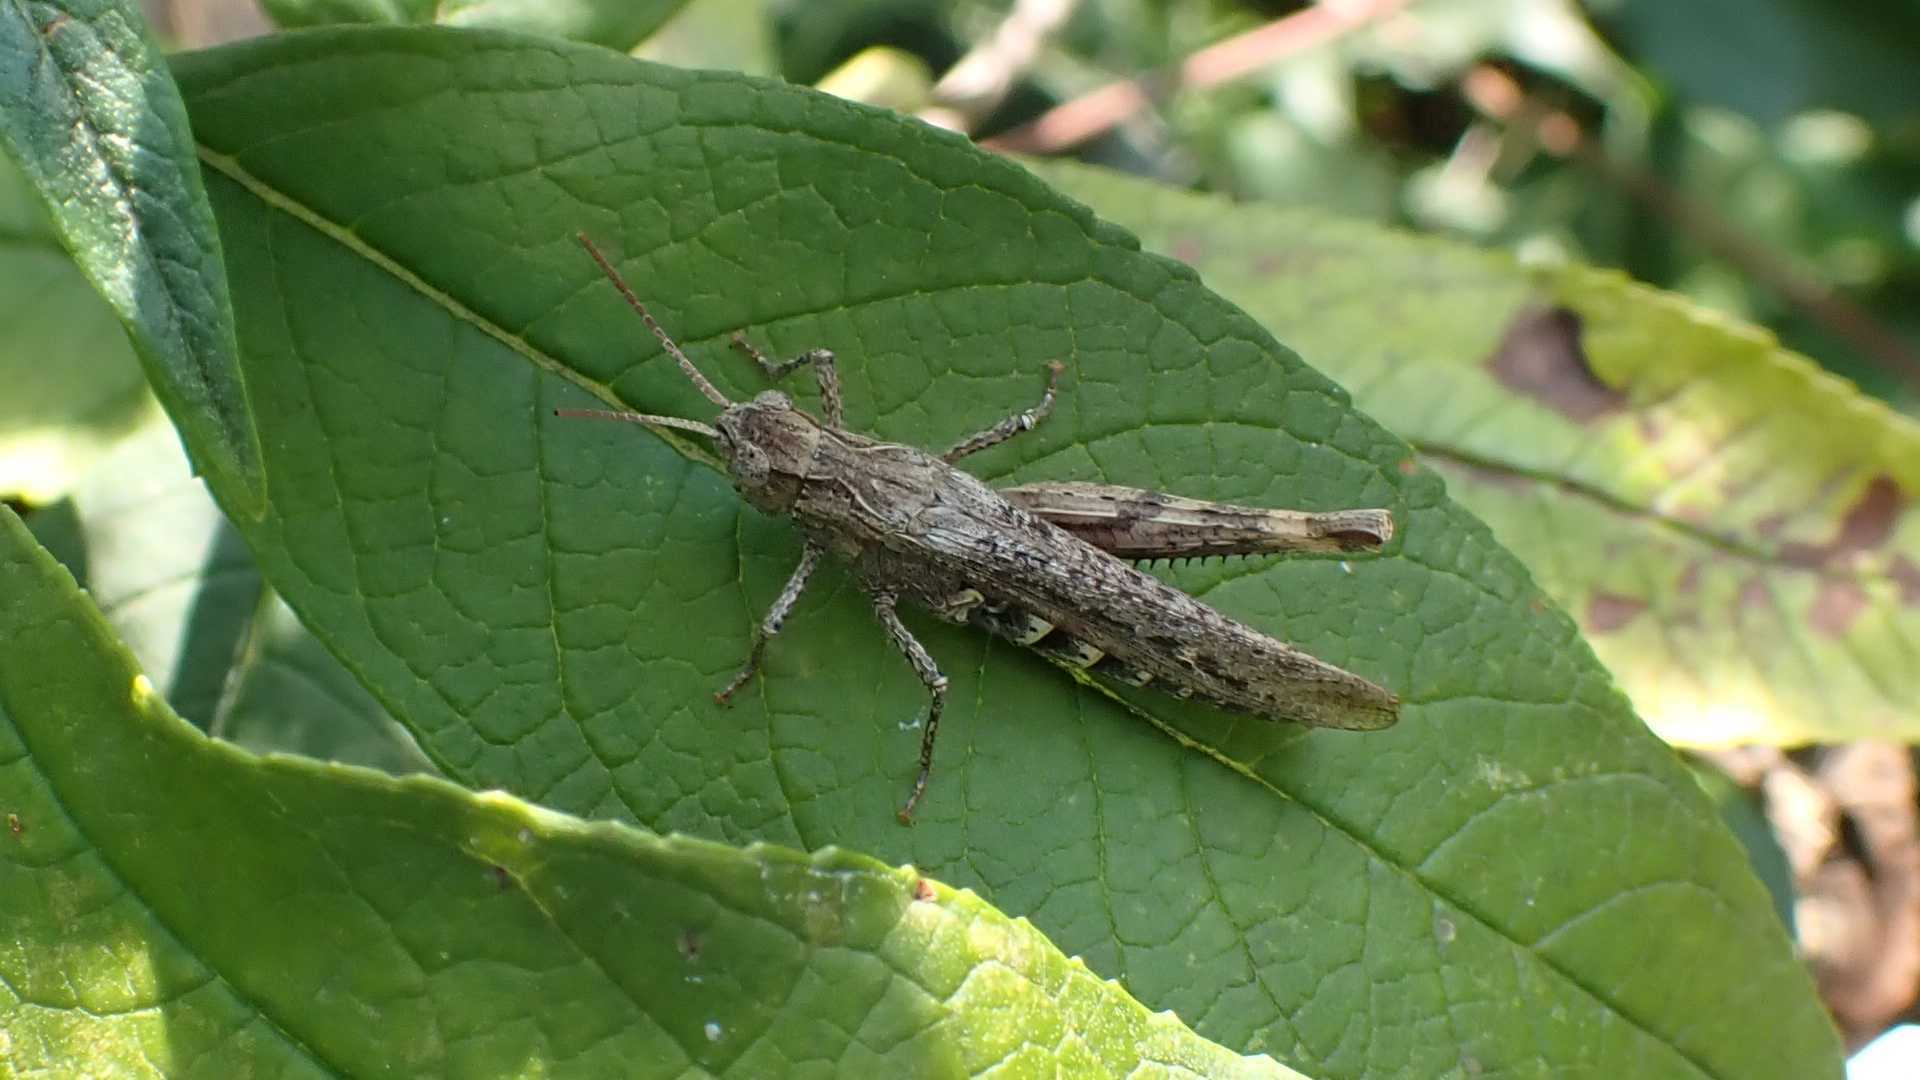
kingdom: Animalia
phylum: Arthropoda
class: Insecta
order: Orthoptera
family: Acrididae
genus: Glyptobothrus
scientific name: Glyptobothrus
